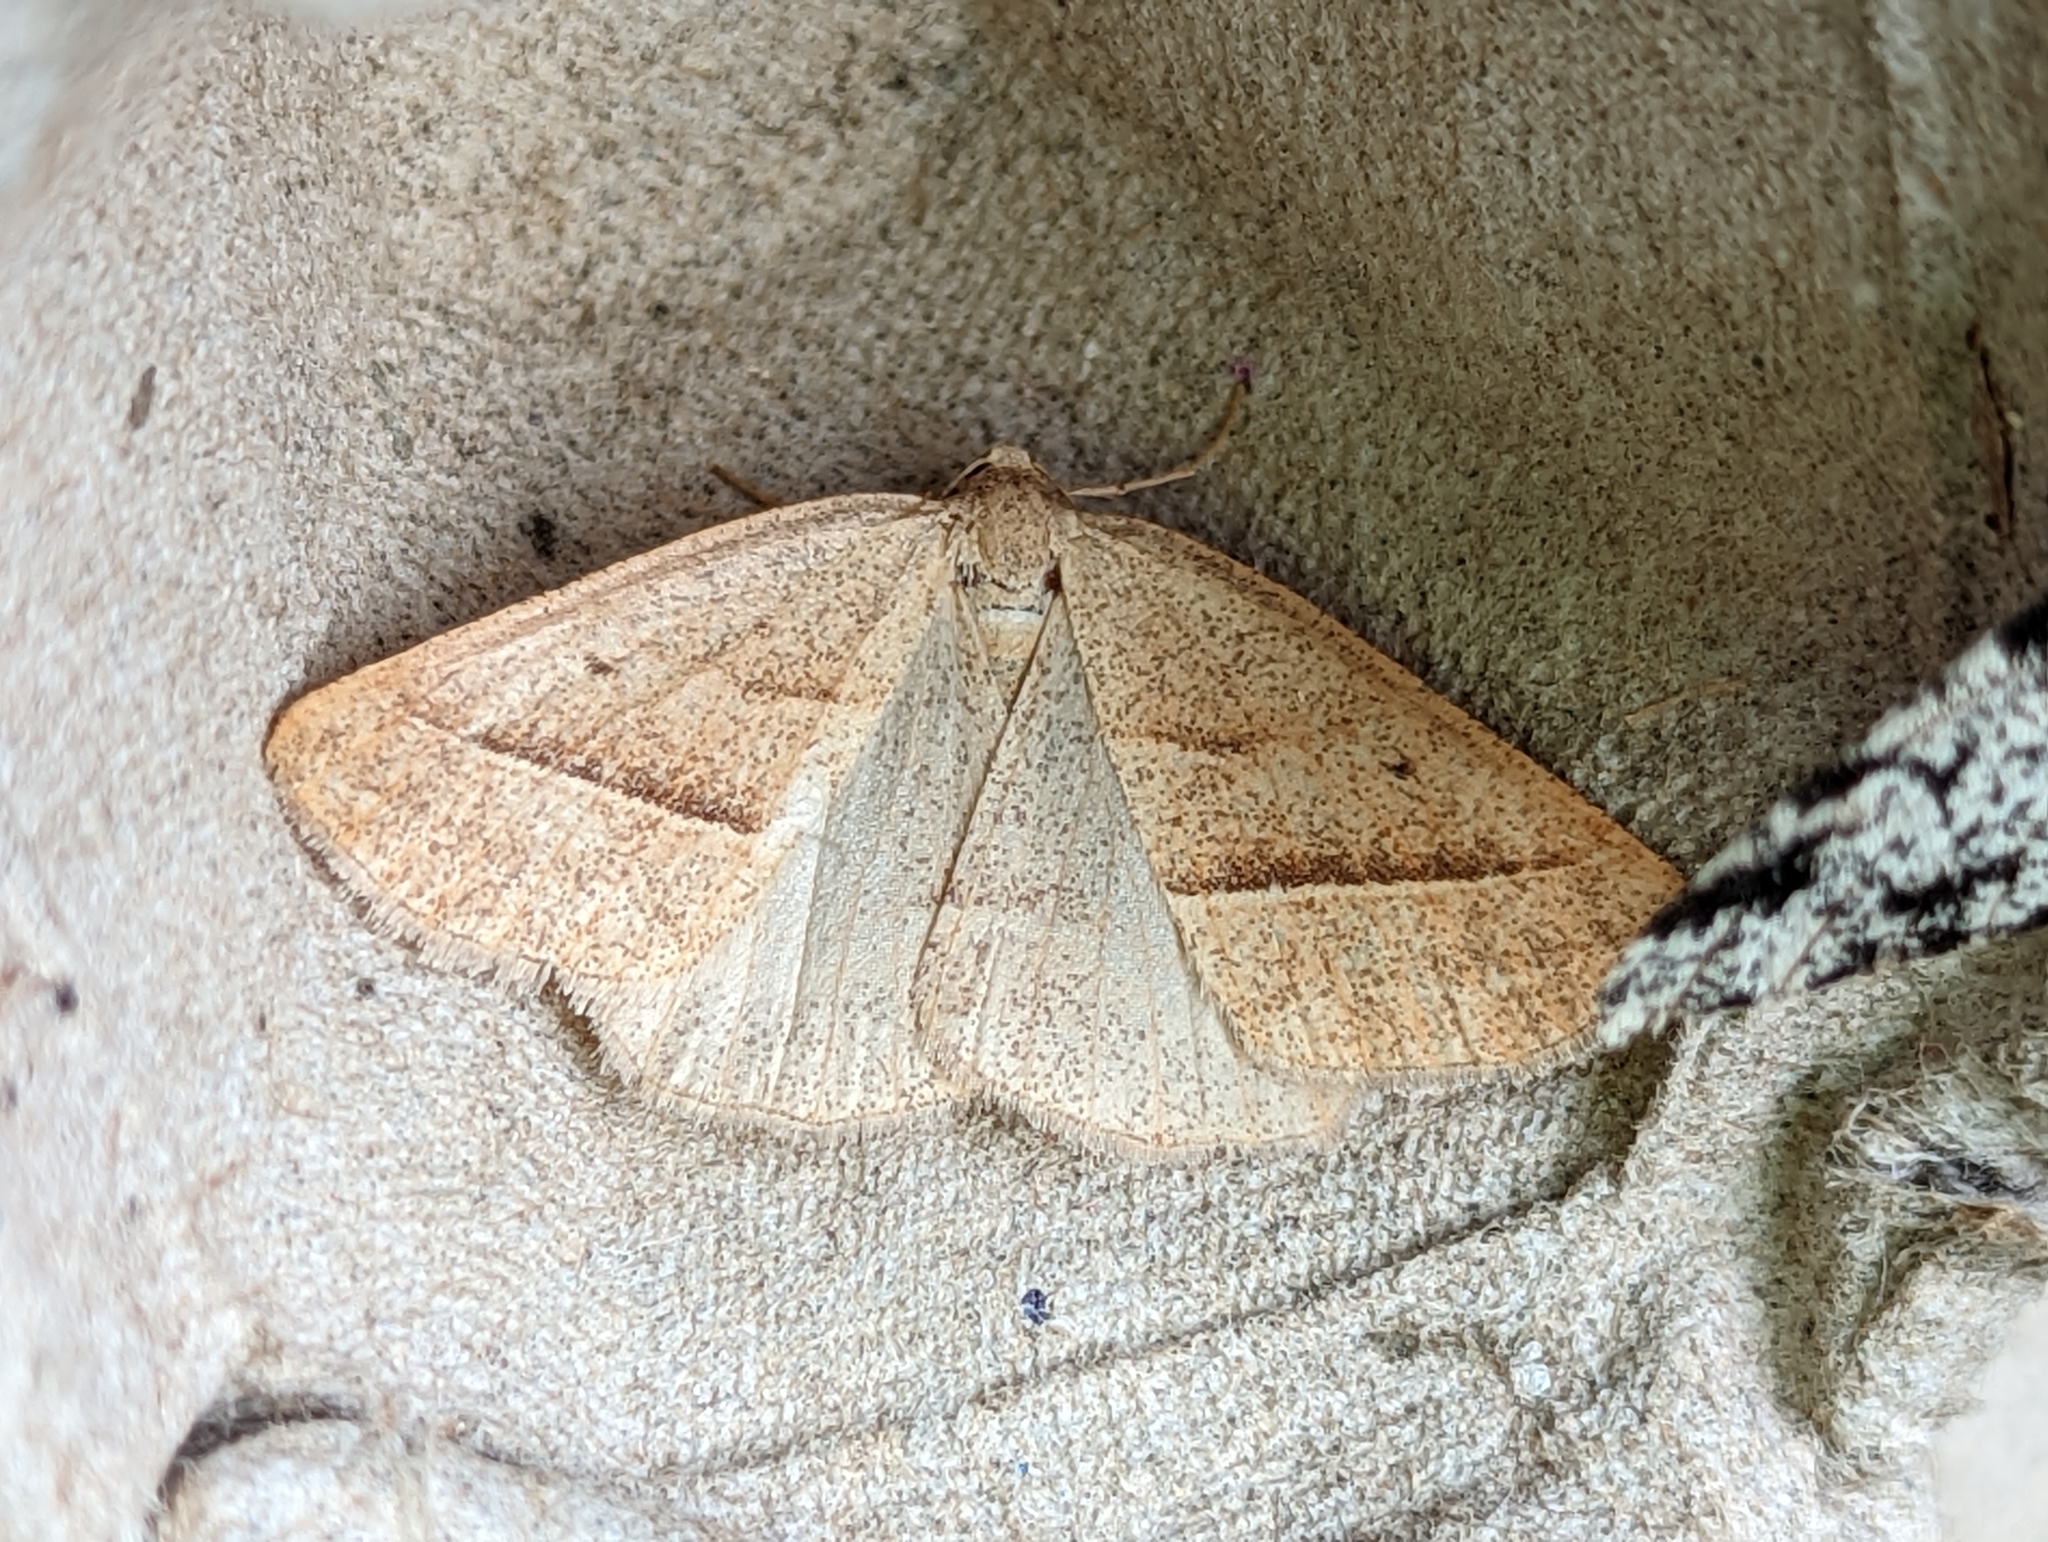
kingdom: Animalia
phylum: Arthropoda
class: Insecta
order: Lepidoptera
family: Pterophoridae
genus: Pterophorus
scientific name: Pterophorus Petrophora chlorosata
